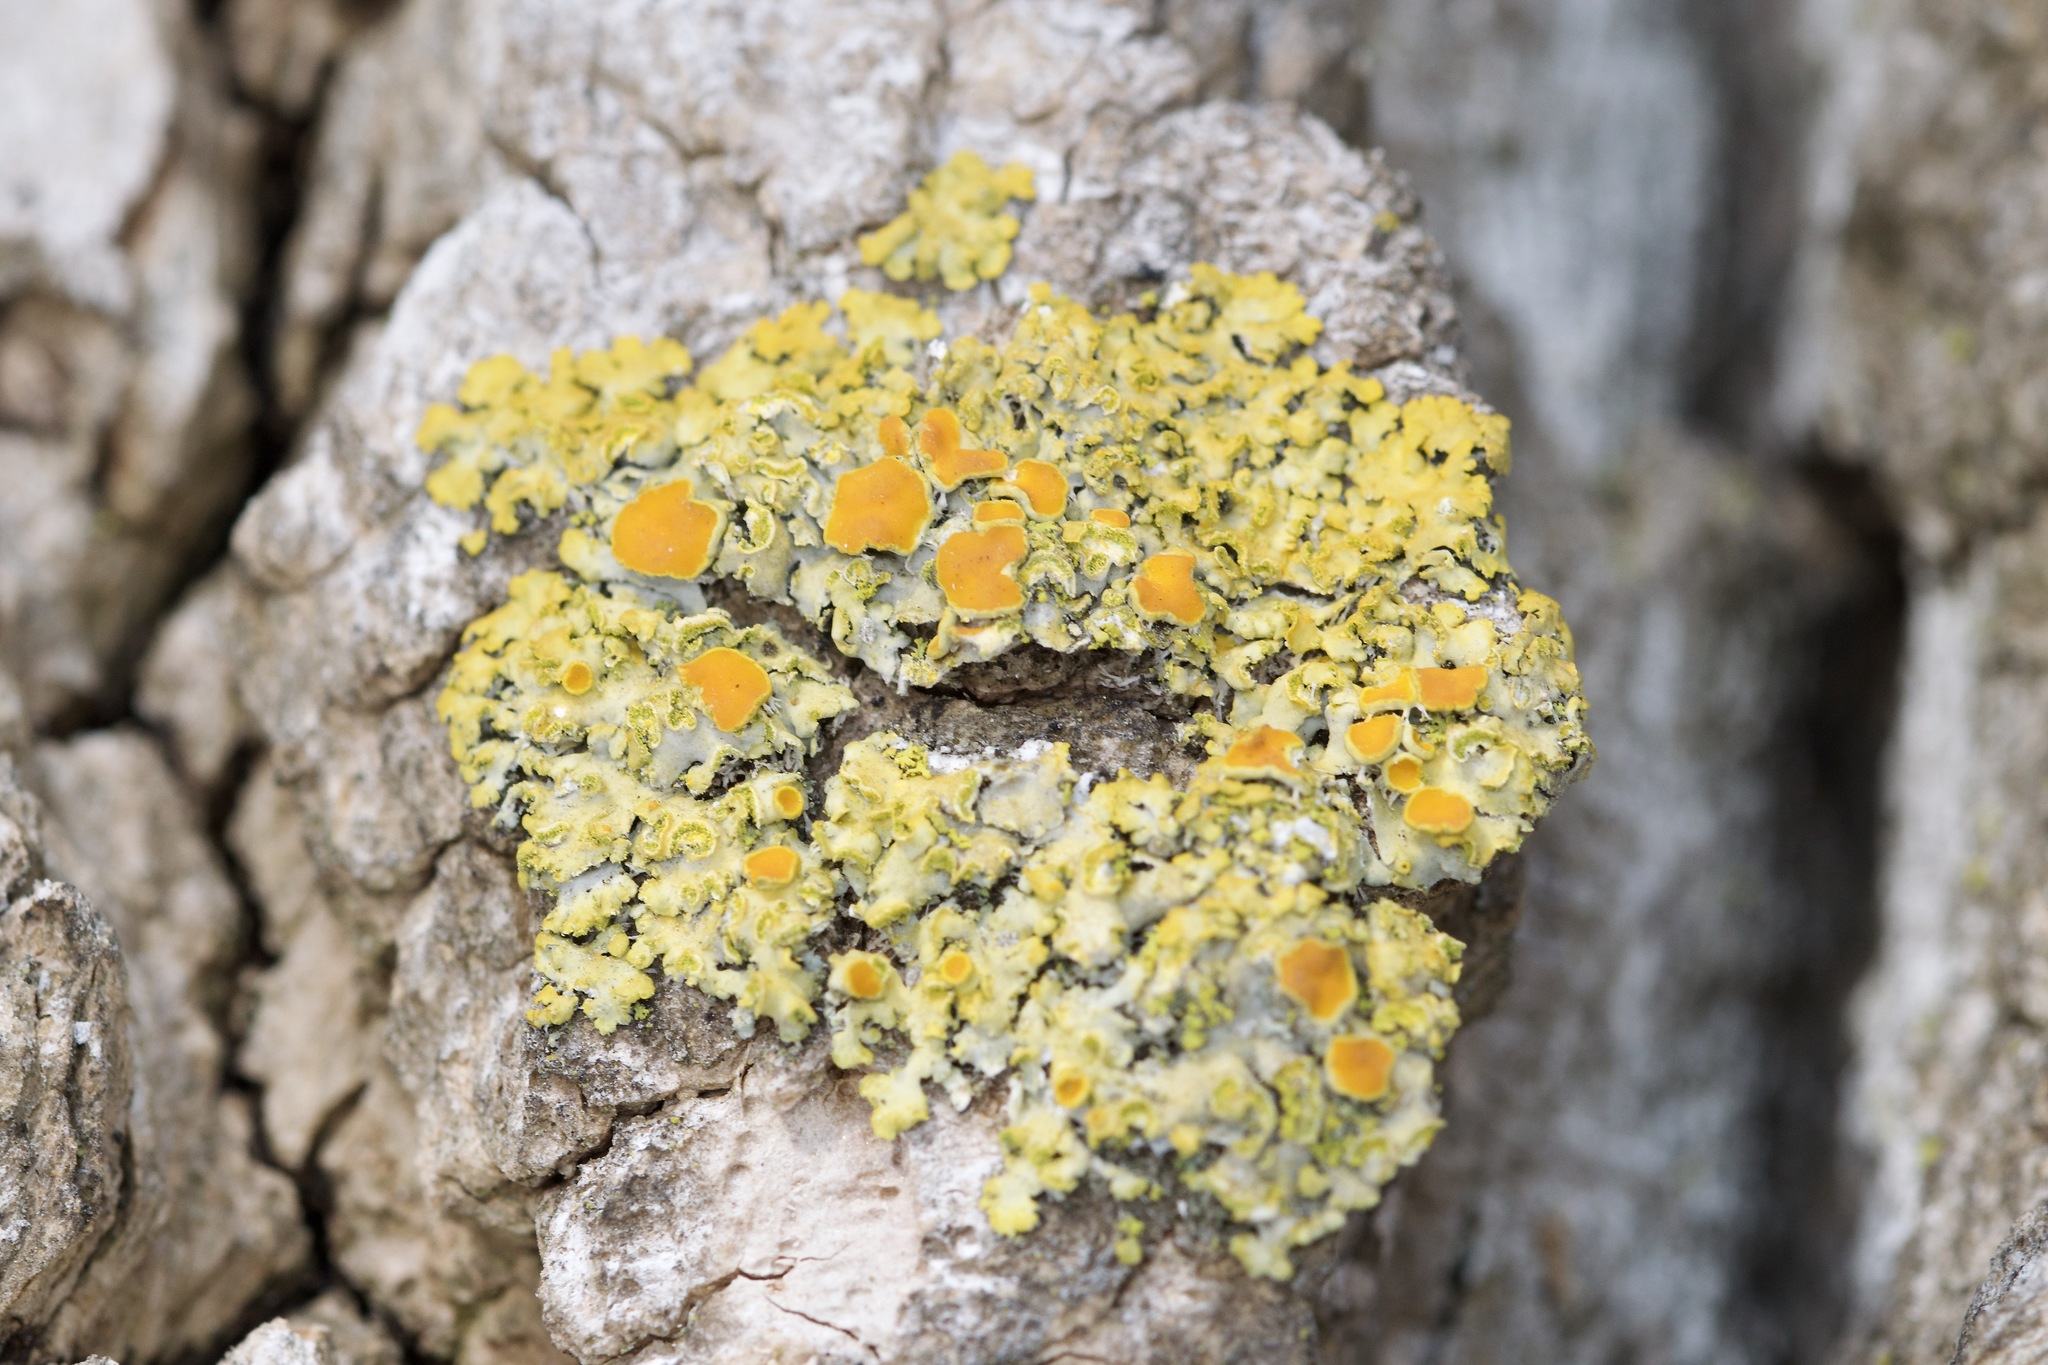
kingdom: Fungi
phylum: Ascomycota
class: Lecanoromycetes
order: Teloschistales
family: Teloschistaceae
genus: Oxneria
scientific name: Oxneria fallax
